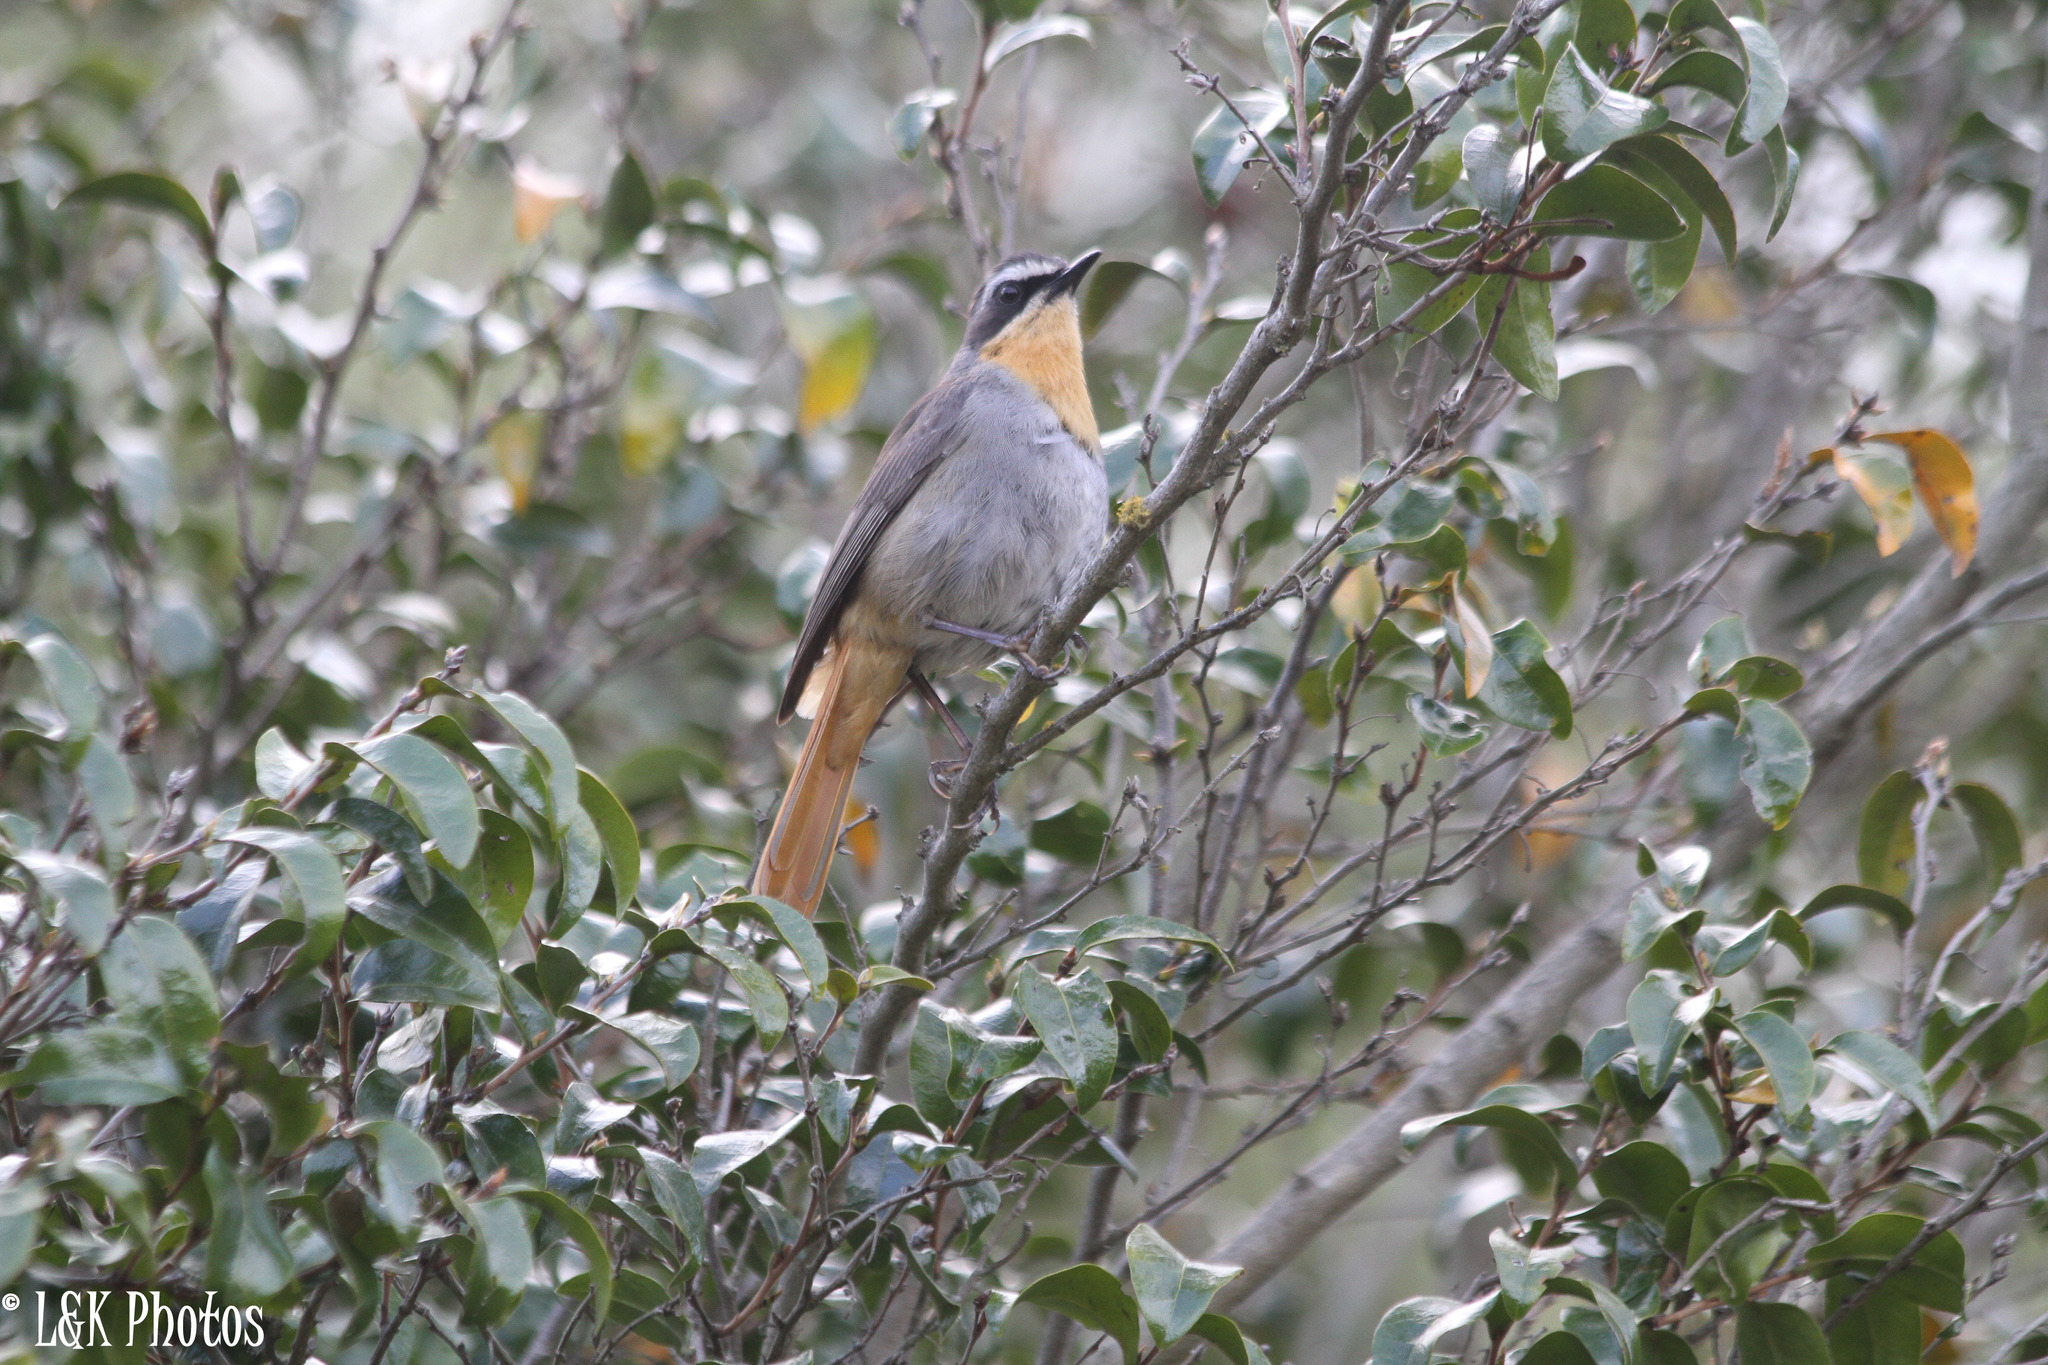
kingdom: Animalia
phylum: Chordata
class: Aves
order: Passeriformes
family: Muscicapidae
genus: Cossypha
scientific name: Cossypha caffra
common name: Cape robin-chat
